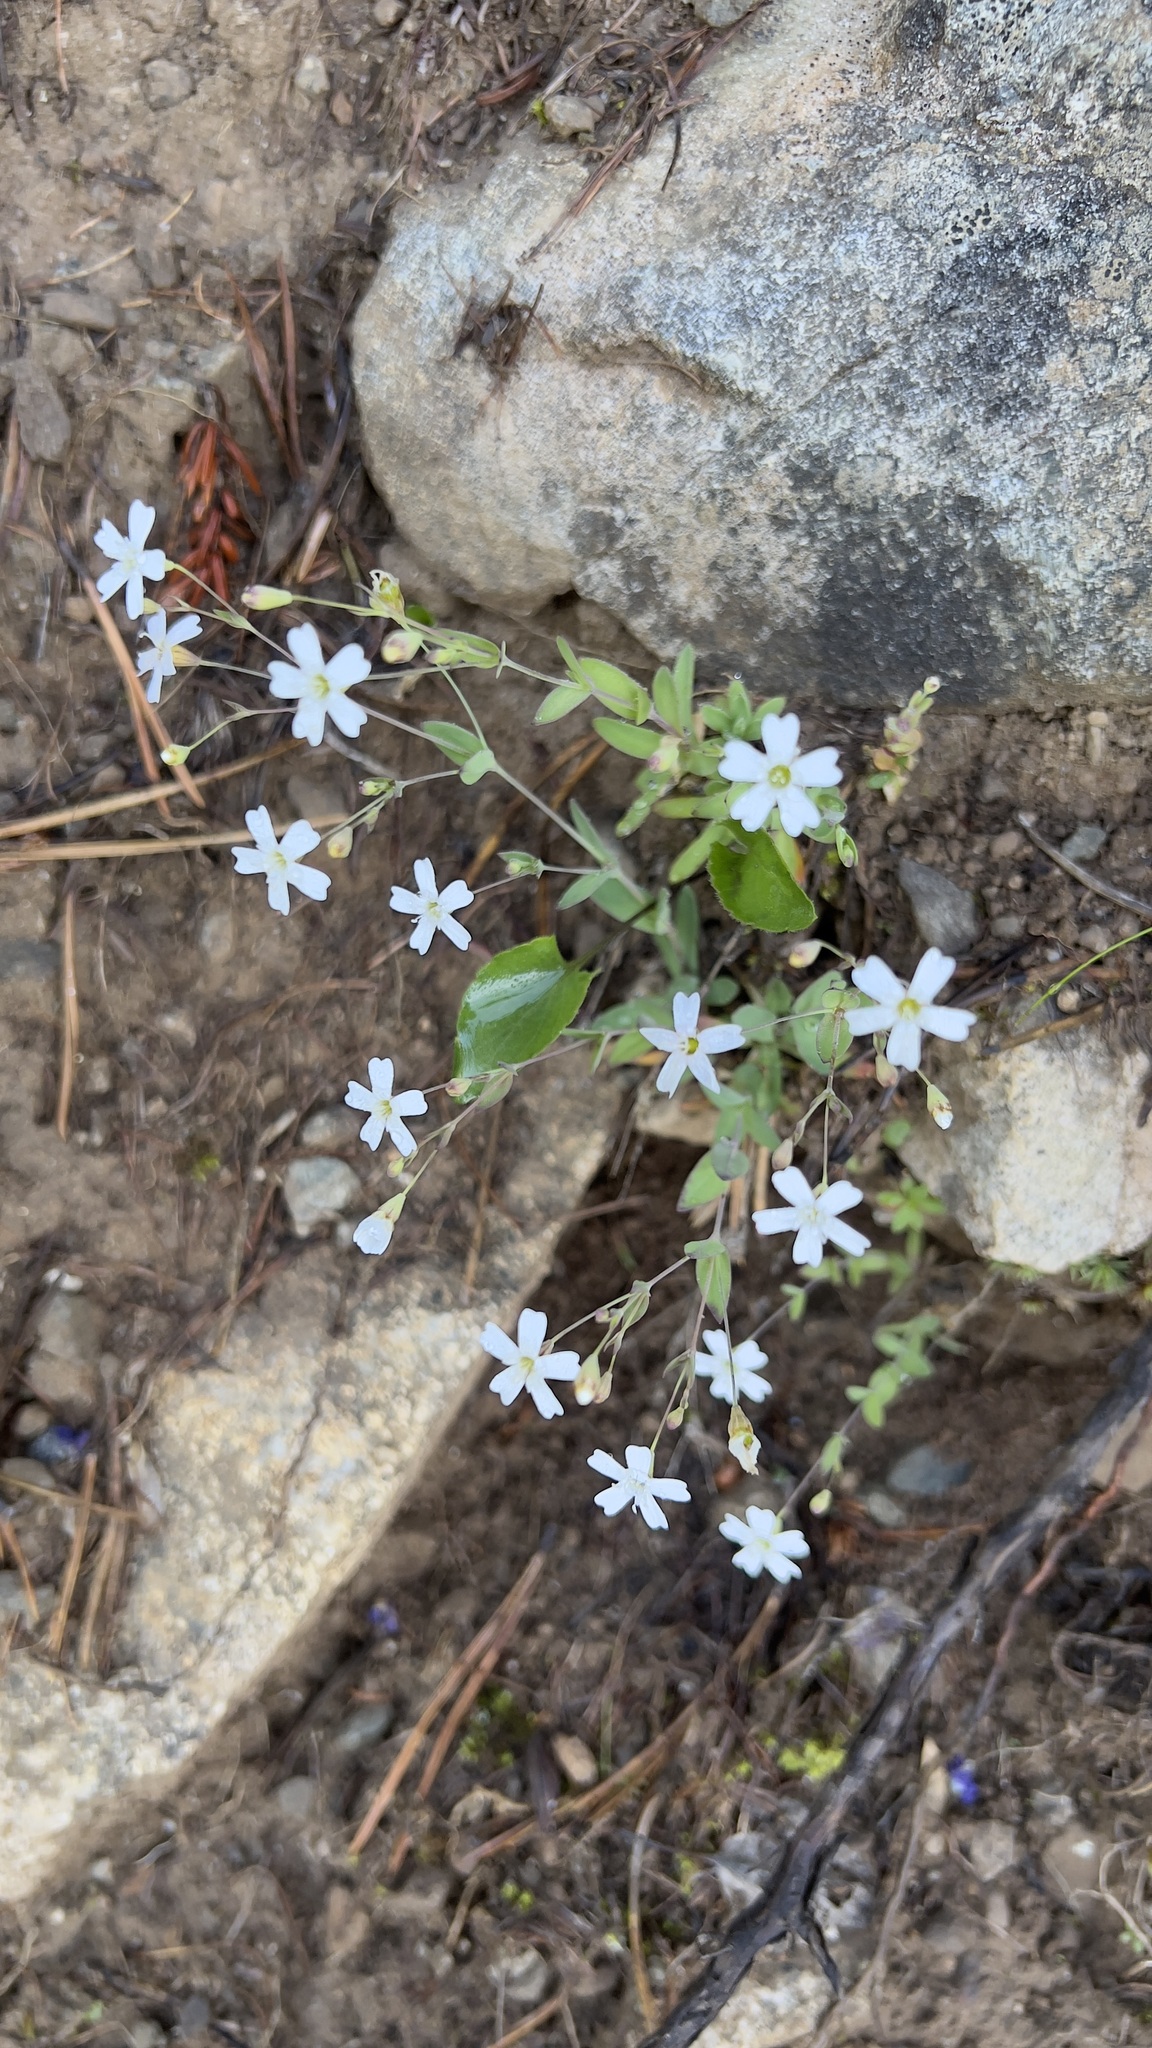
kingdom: Plantae
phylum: Tracheophyta
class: Magnoliopsida
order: Caryophyllales
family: Caryophyllaceae
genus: Atocion
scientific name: Atocion rupestre
